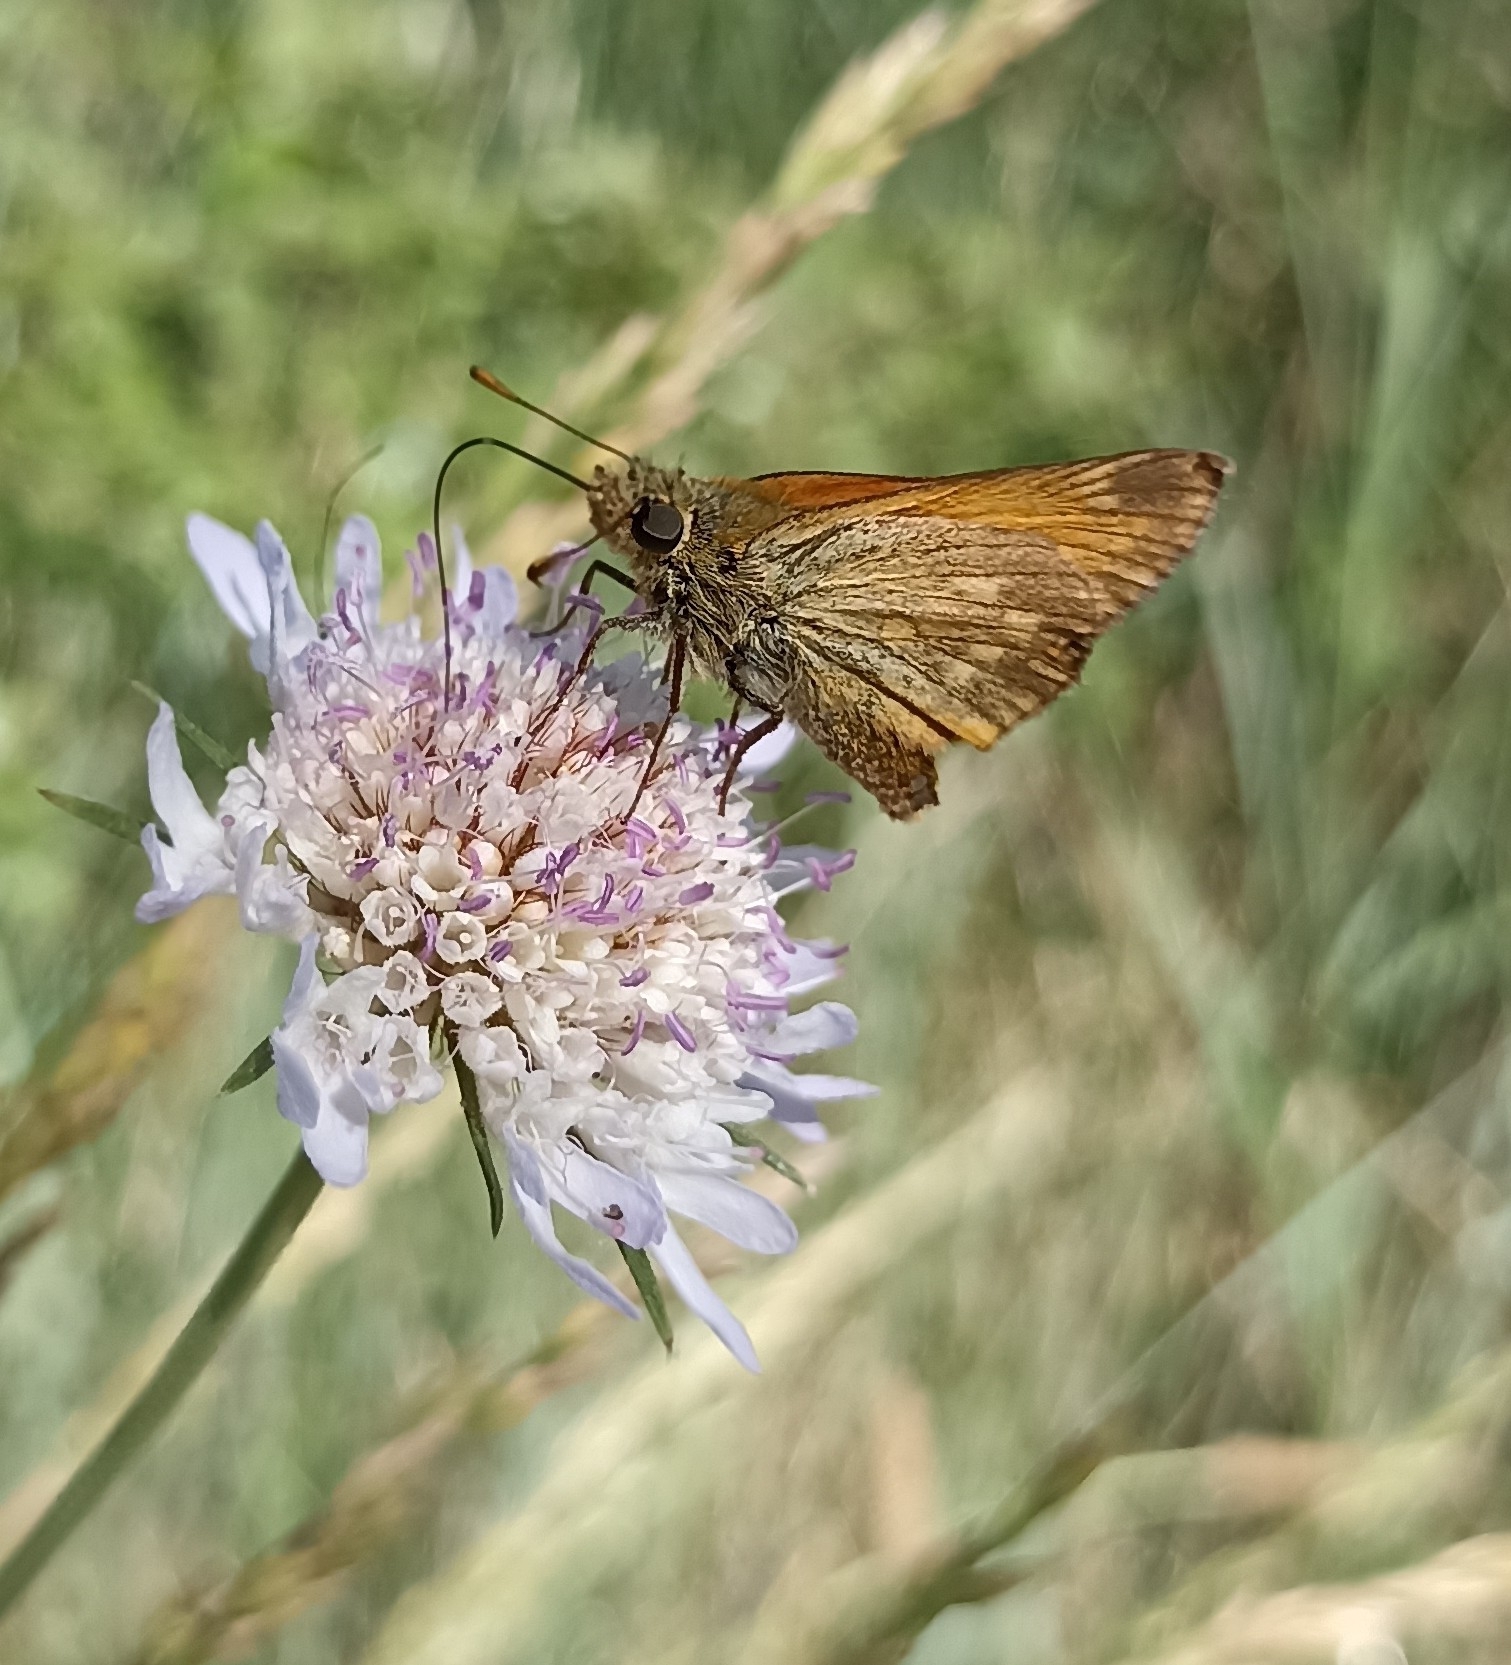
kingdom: Animalia
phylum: Arthropoda
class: Insecta
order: Lepidoptera
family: Hesperiidae
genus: Ochlodes
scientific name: Ochlodes venata
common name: Large skipper
